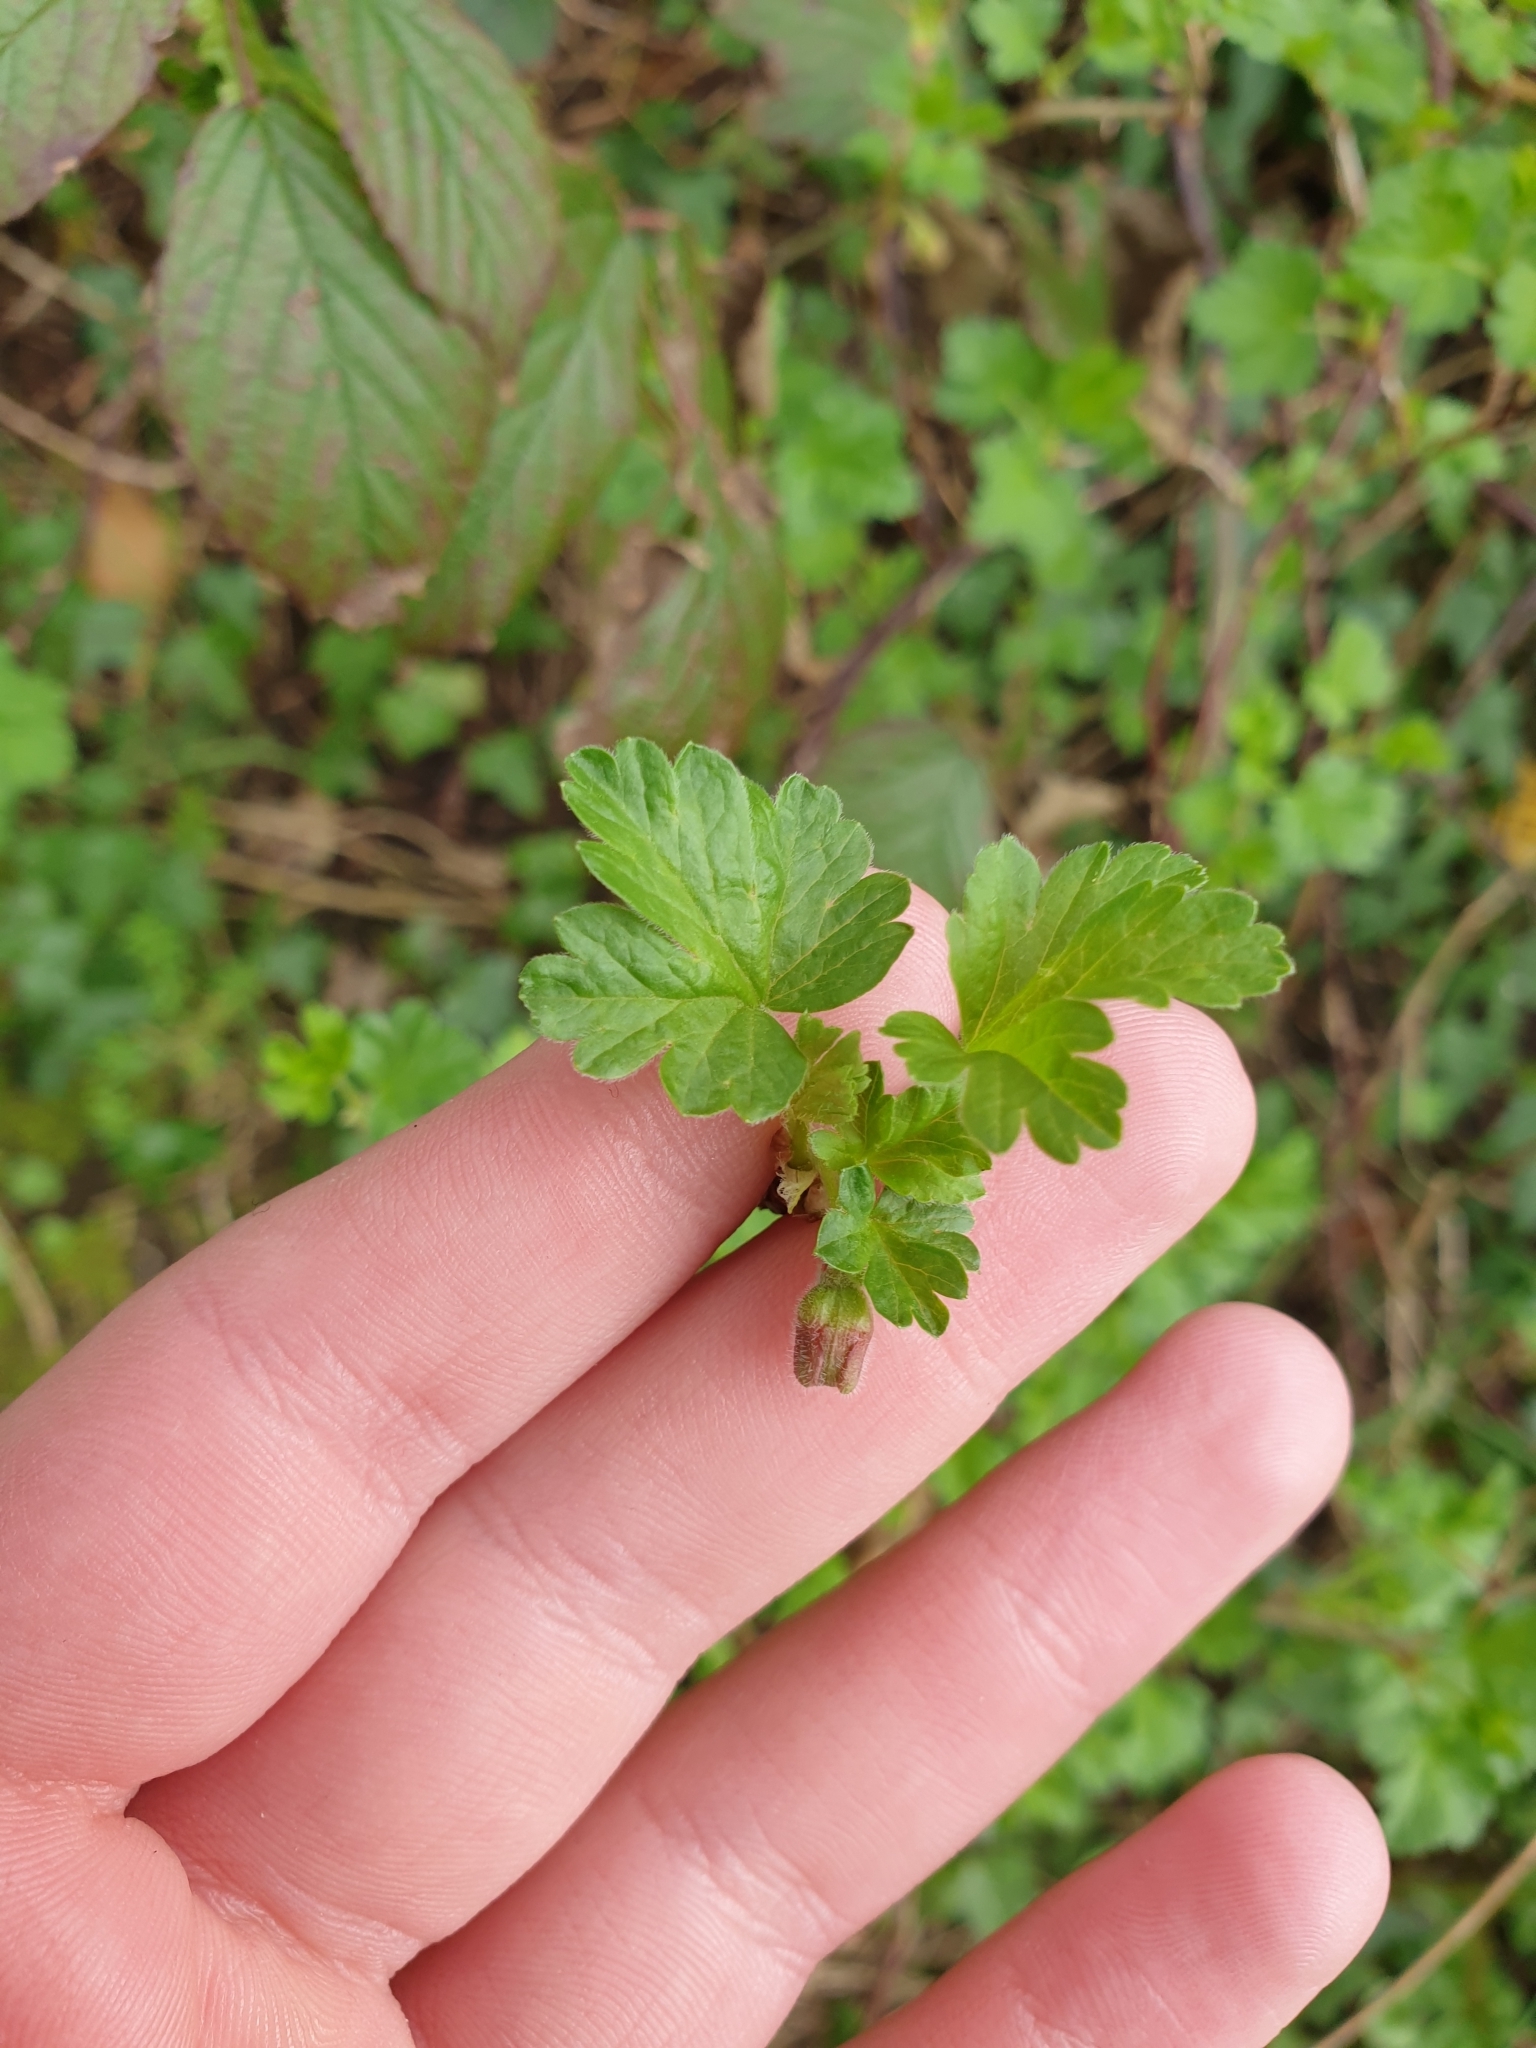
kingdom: Plantae
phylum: Tracheophyta
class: Magnoliopsida
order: Saxifragales
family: Grossulariaceae
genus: Ribes
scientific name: Ribes uva-crispa
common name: Gooseberry
